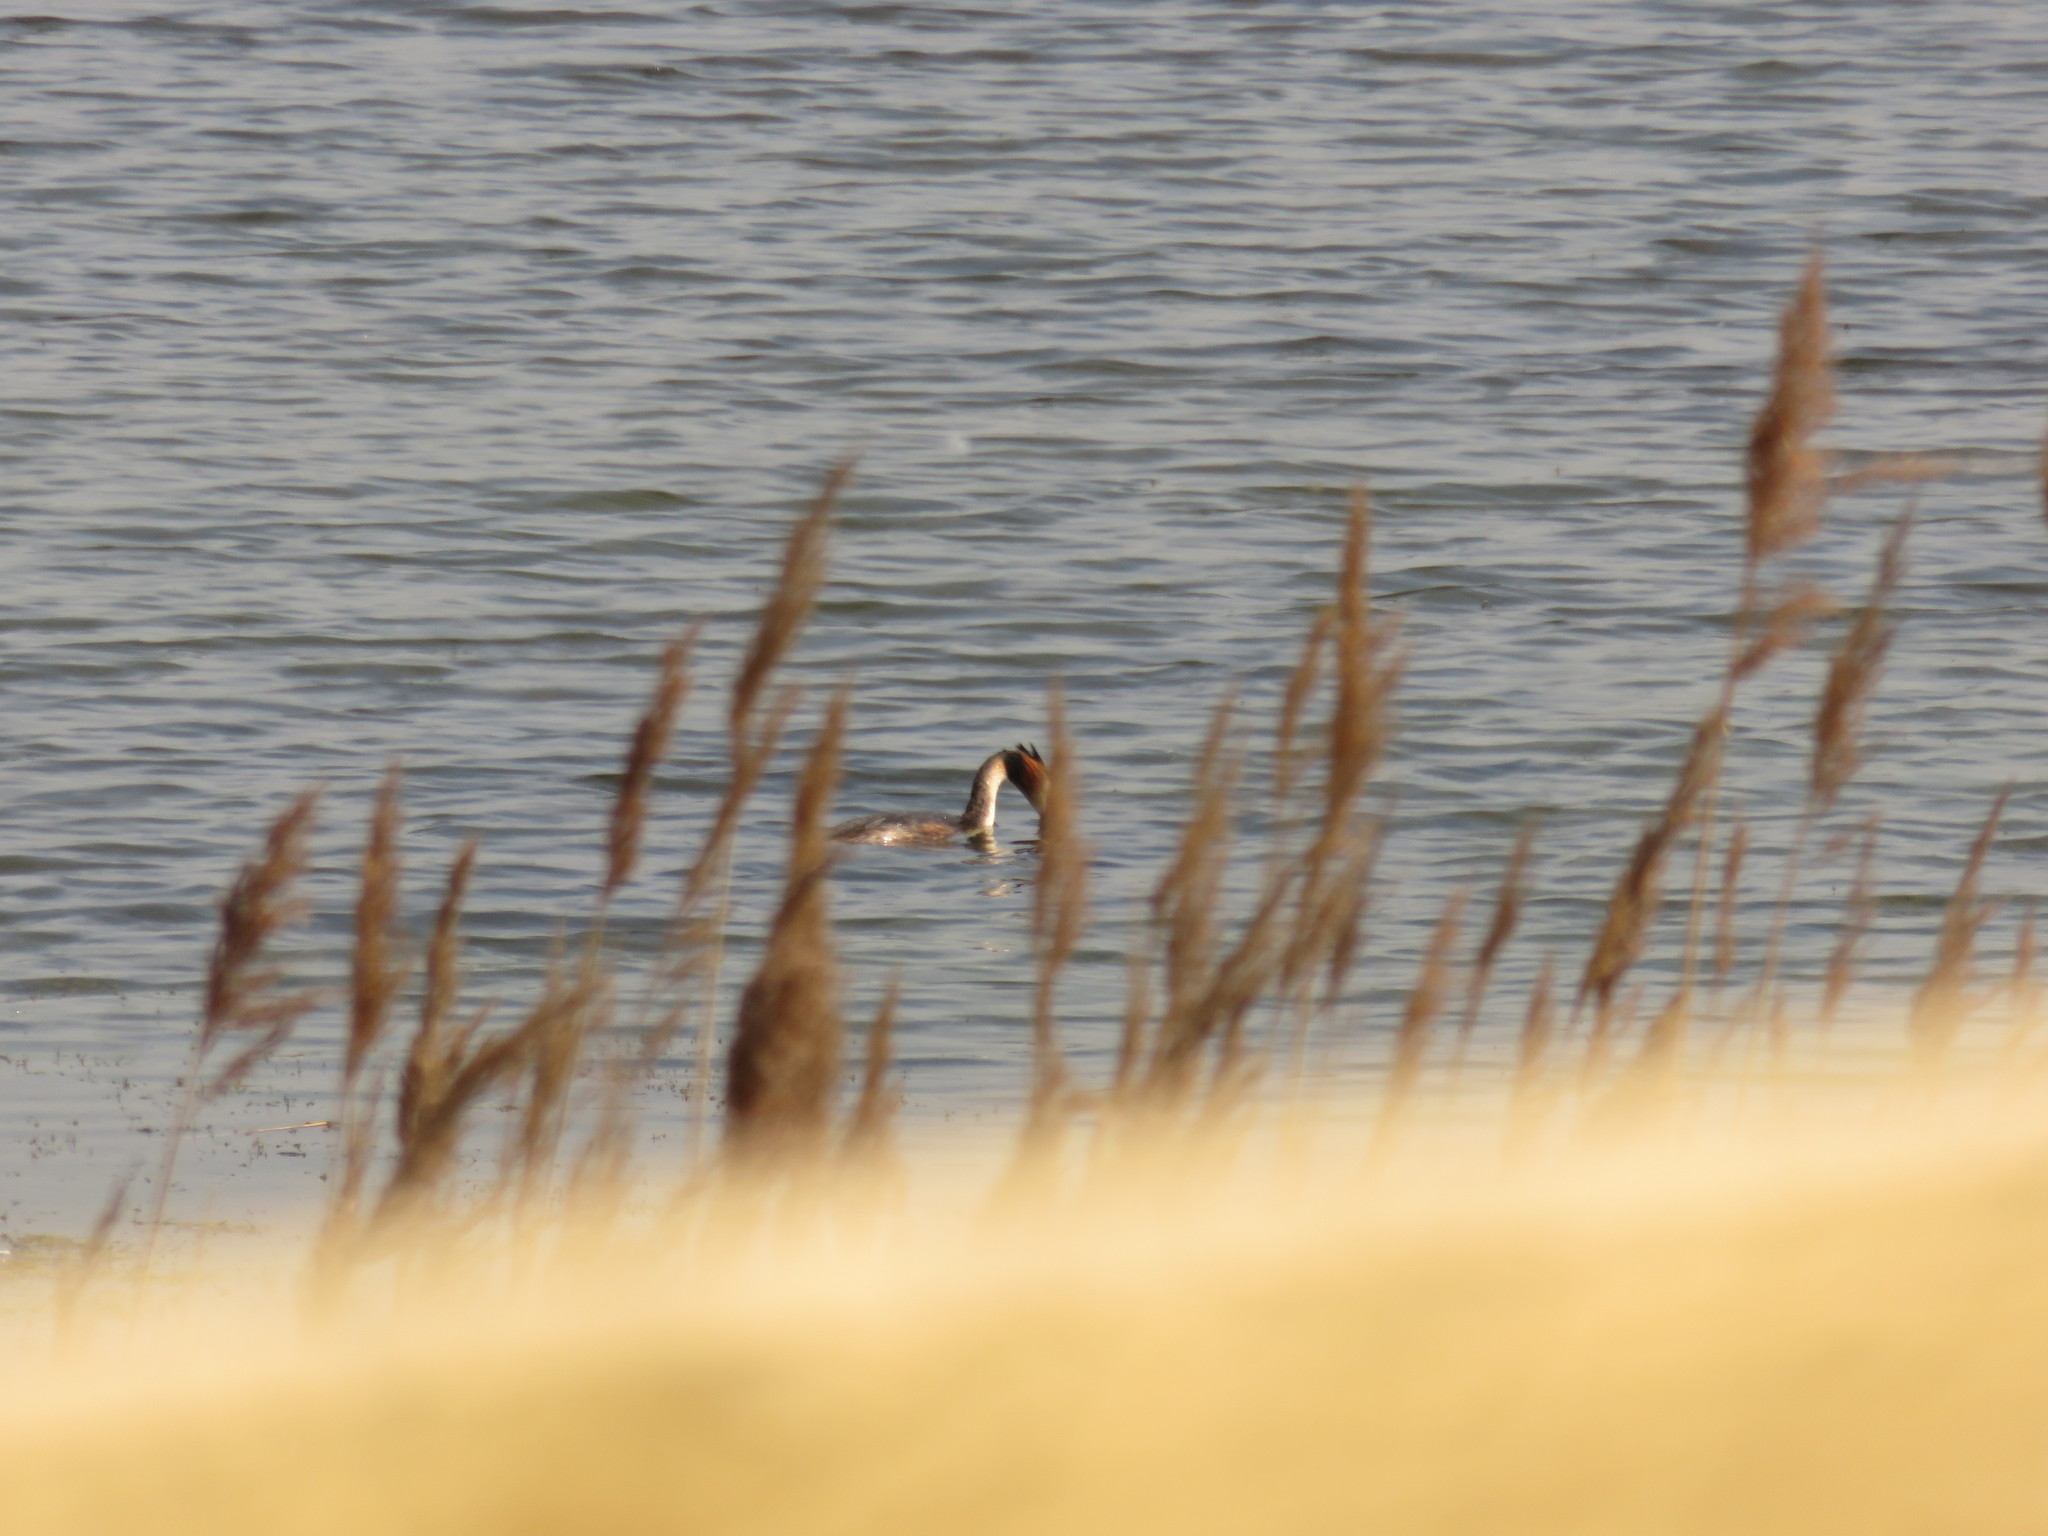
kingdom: Animalia
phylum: Chordata
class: Aves
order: Podicipediformes
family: Podicipedidae
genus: Podiceps
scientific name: Podiceps cristatus
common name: Great crested grebe
